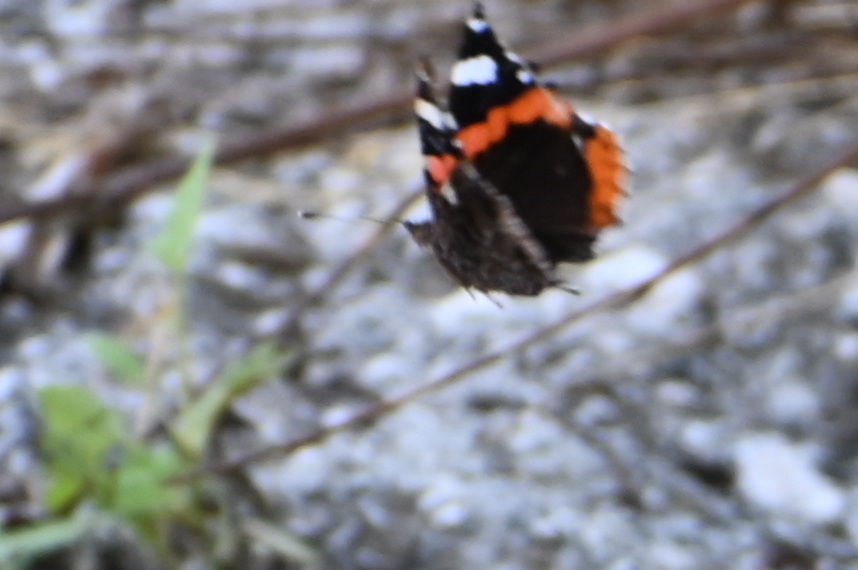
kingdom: Animalia
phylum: Arthropoda
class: Insecta
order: Lepidoptera
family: Nymphalidae
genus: Vanessa
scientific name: Vanessa atalanta
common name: Red admiral
